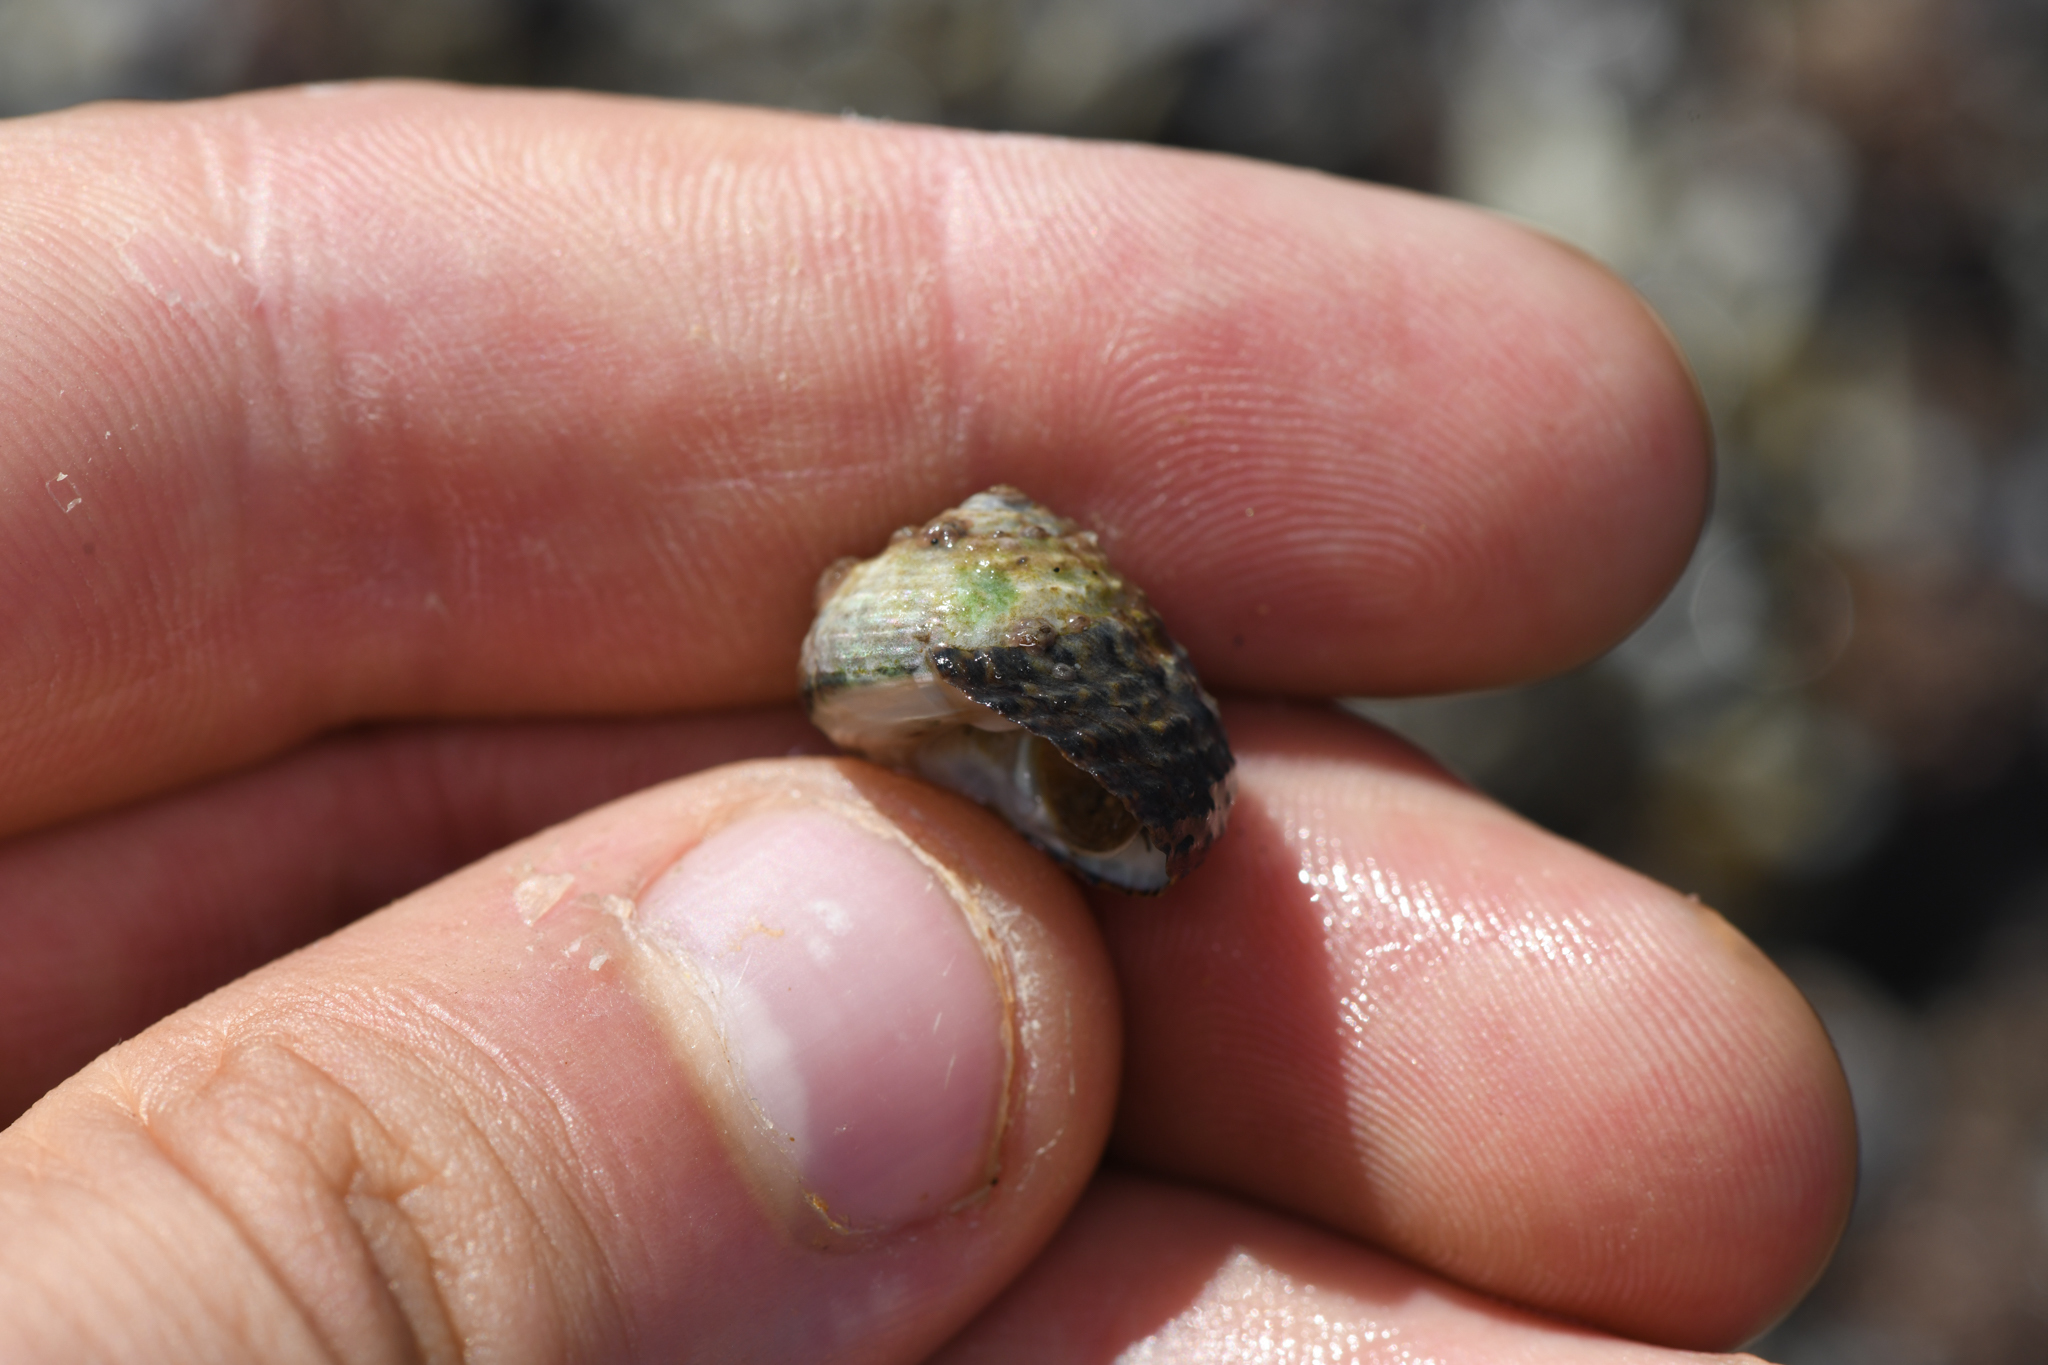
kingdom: Animalia
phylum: Mollusca
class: Gastropoda
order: Trochida
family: Tegulidae
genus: Tegula
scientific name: Tegula eiseni
